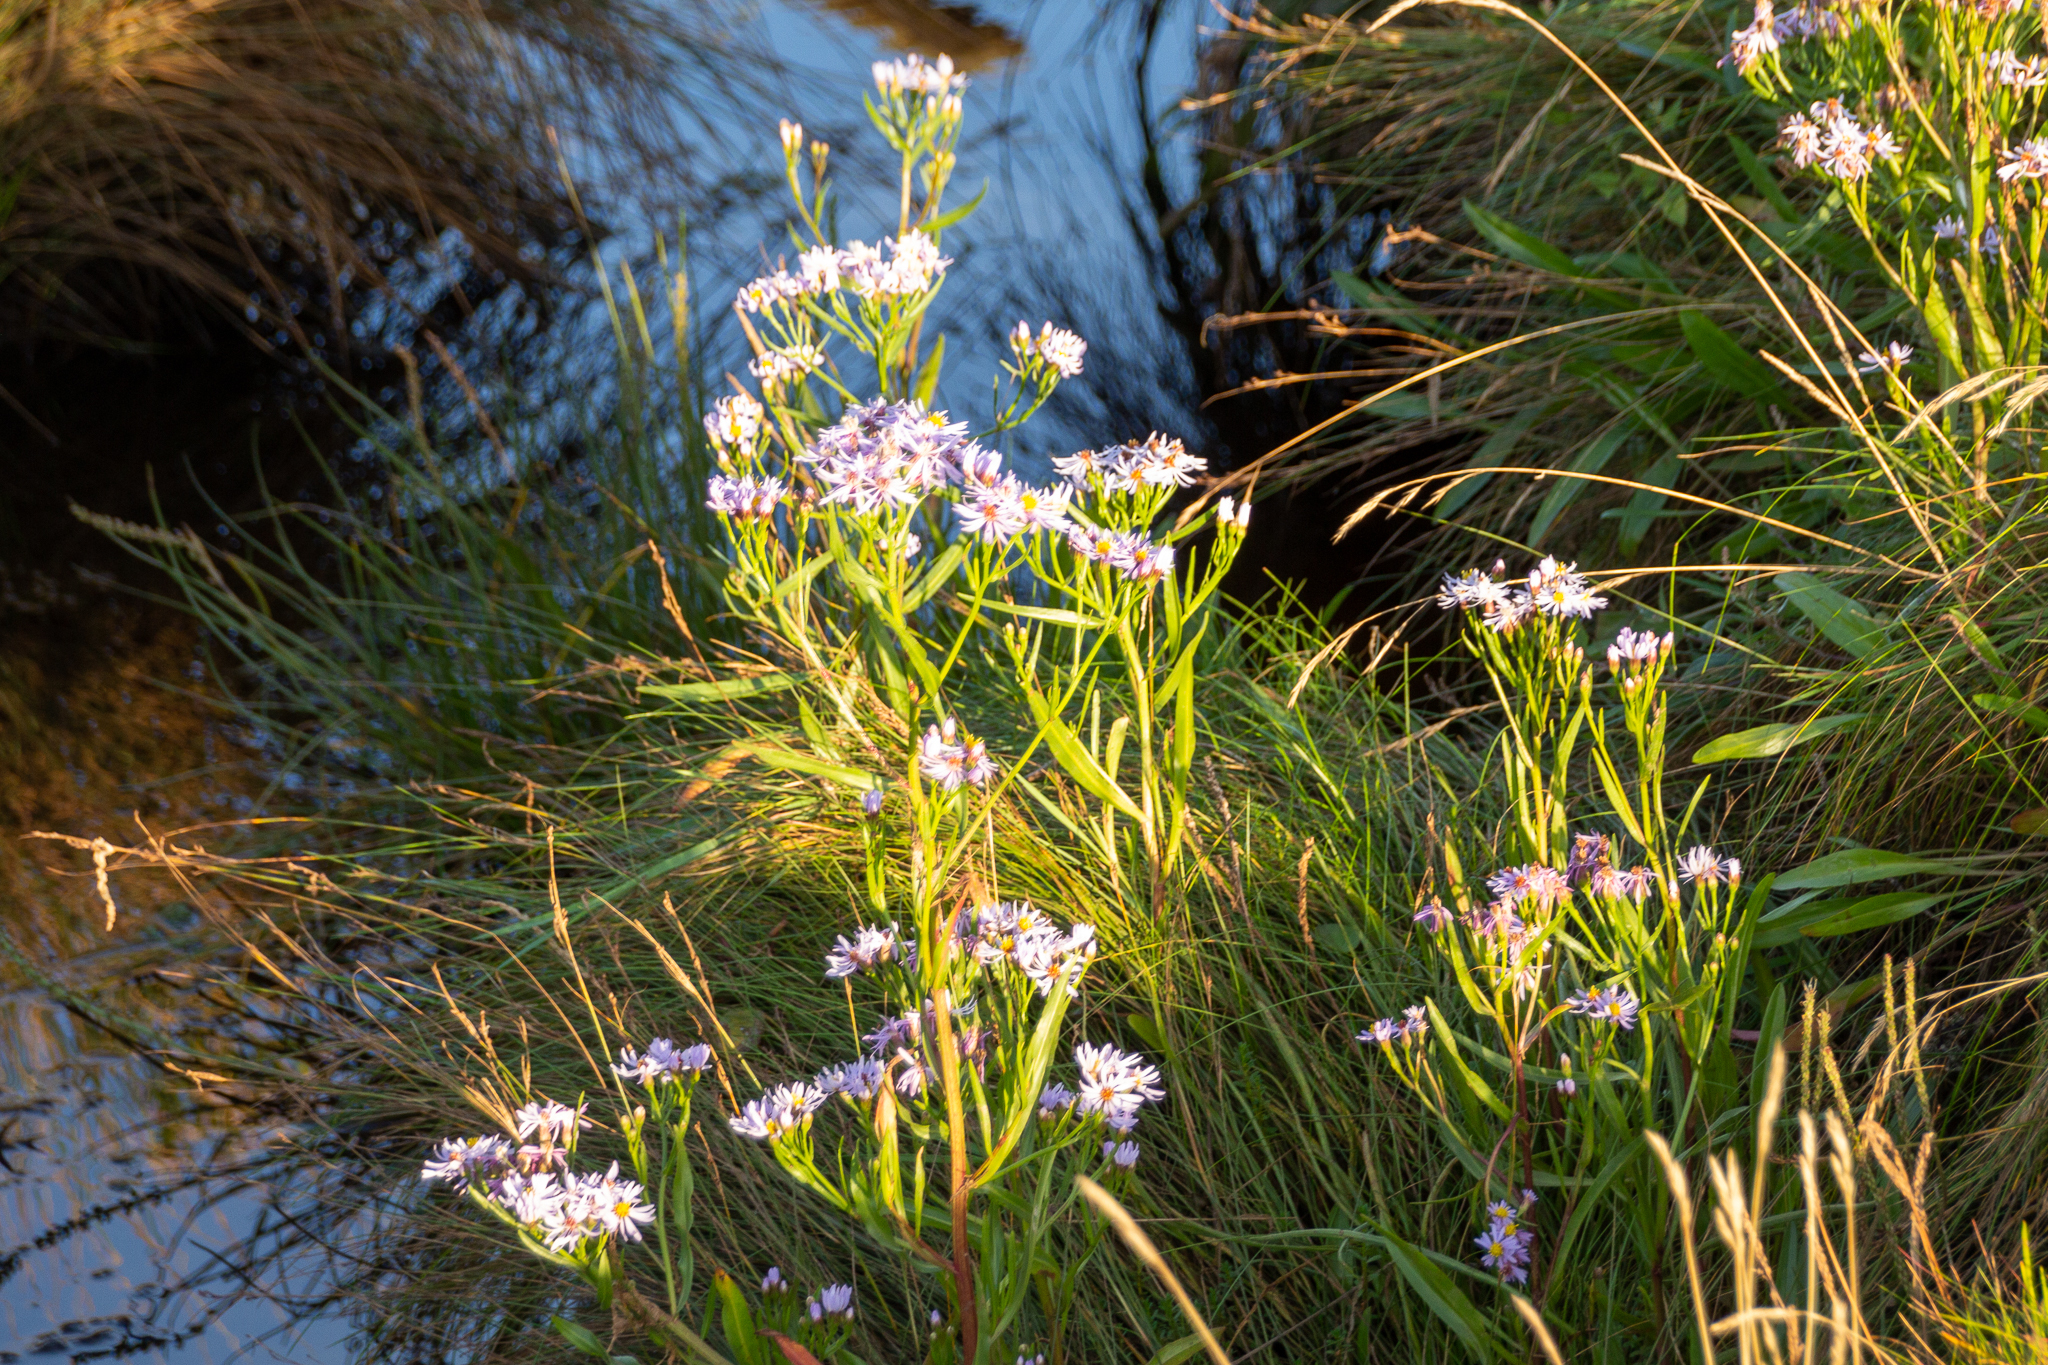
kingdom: Plantae
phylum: Tracheophyta
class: Magnoliopsida
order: Asterales
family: Asteraceae
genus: Tripolium
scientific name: Tripolium pannonicum
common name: Sea aster
